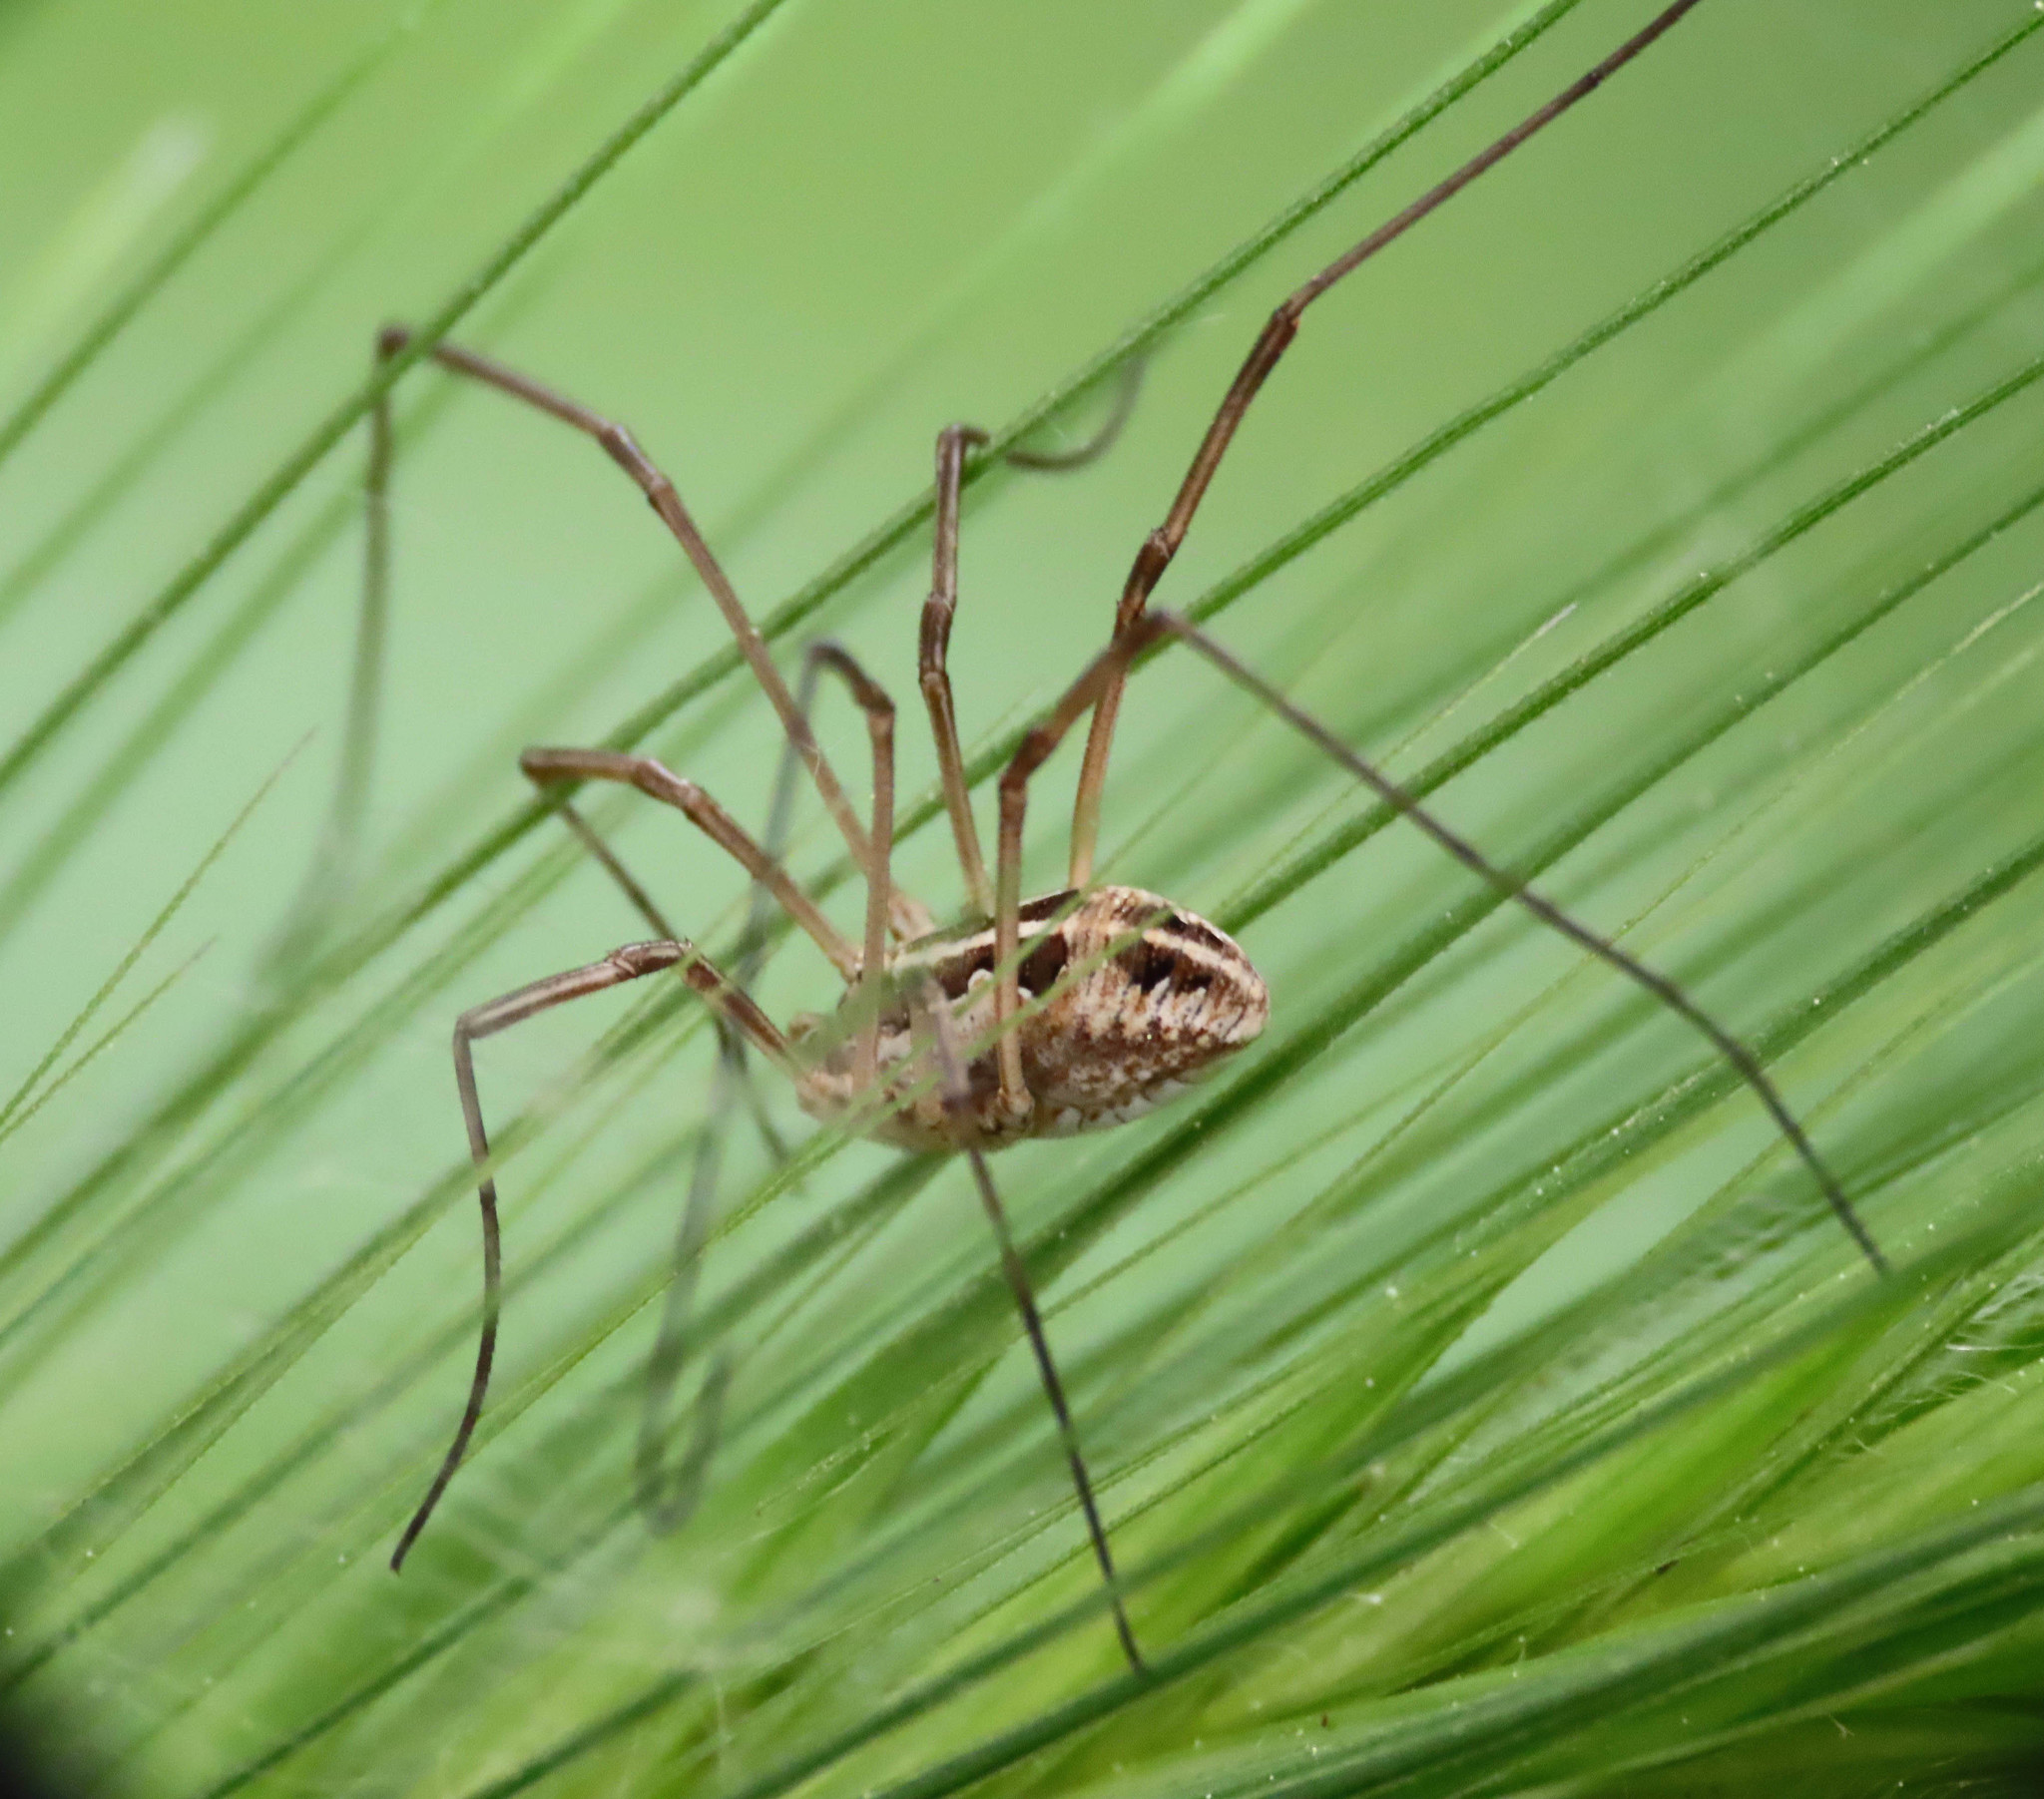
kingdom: Animalia
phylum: Arthropoda
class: Arachnida
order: Opiliones
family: Phalangiidae
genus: Metaphalangium
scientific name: Metaphalangium cirtanum
